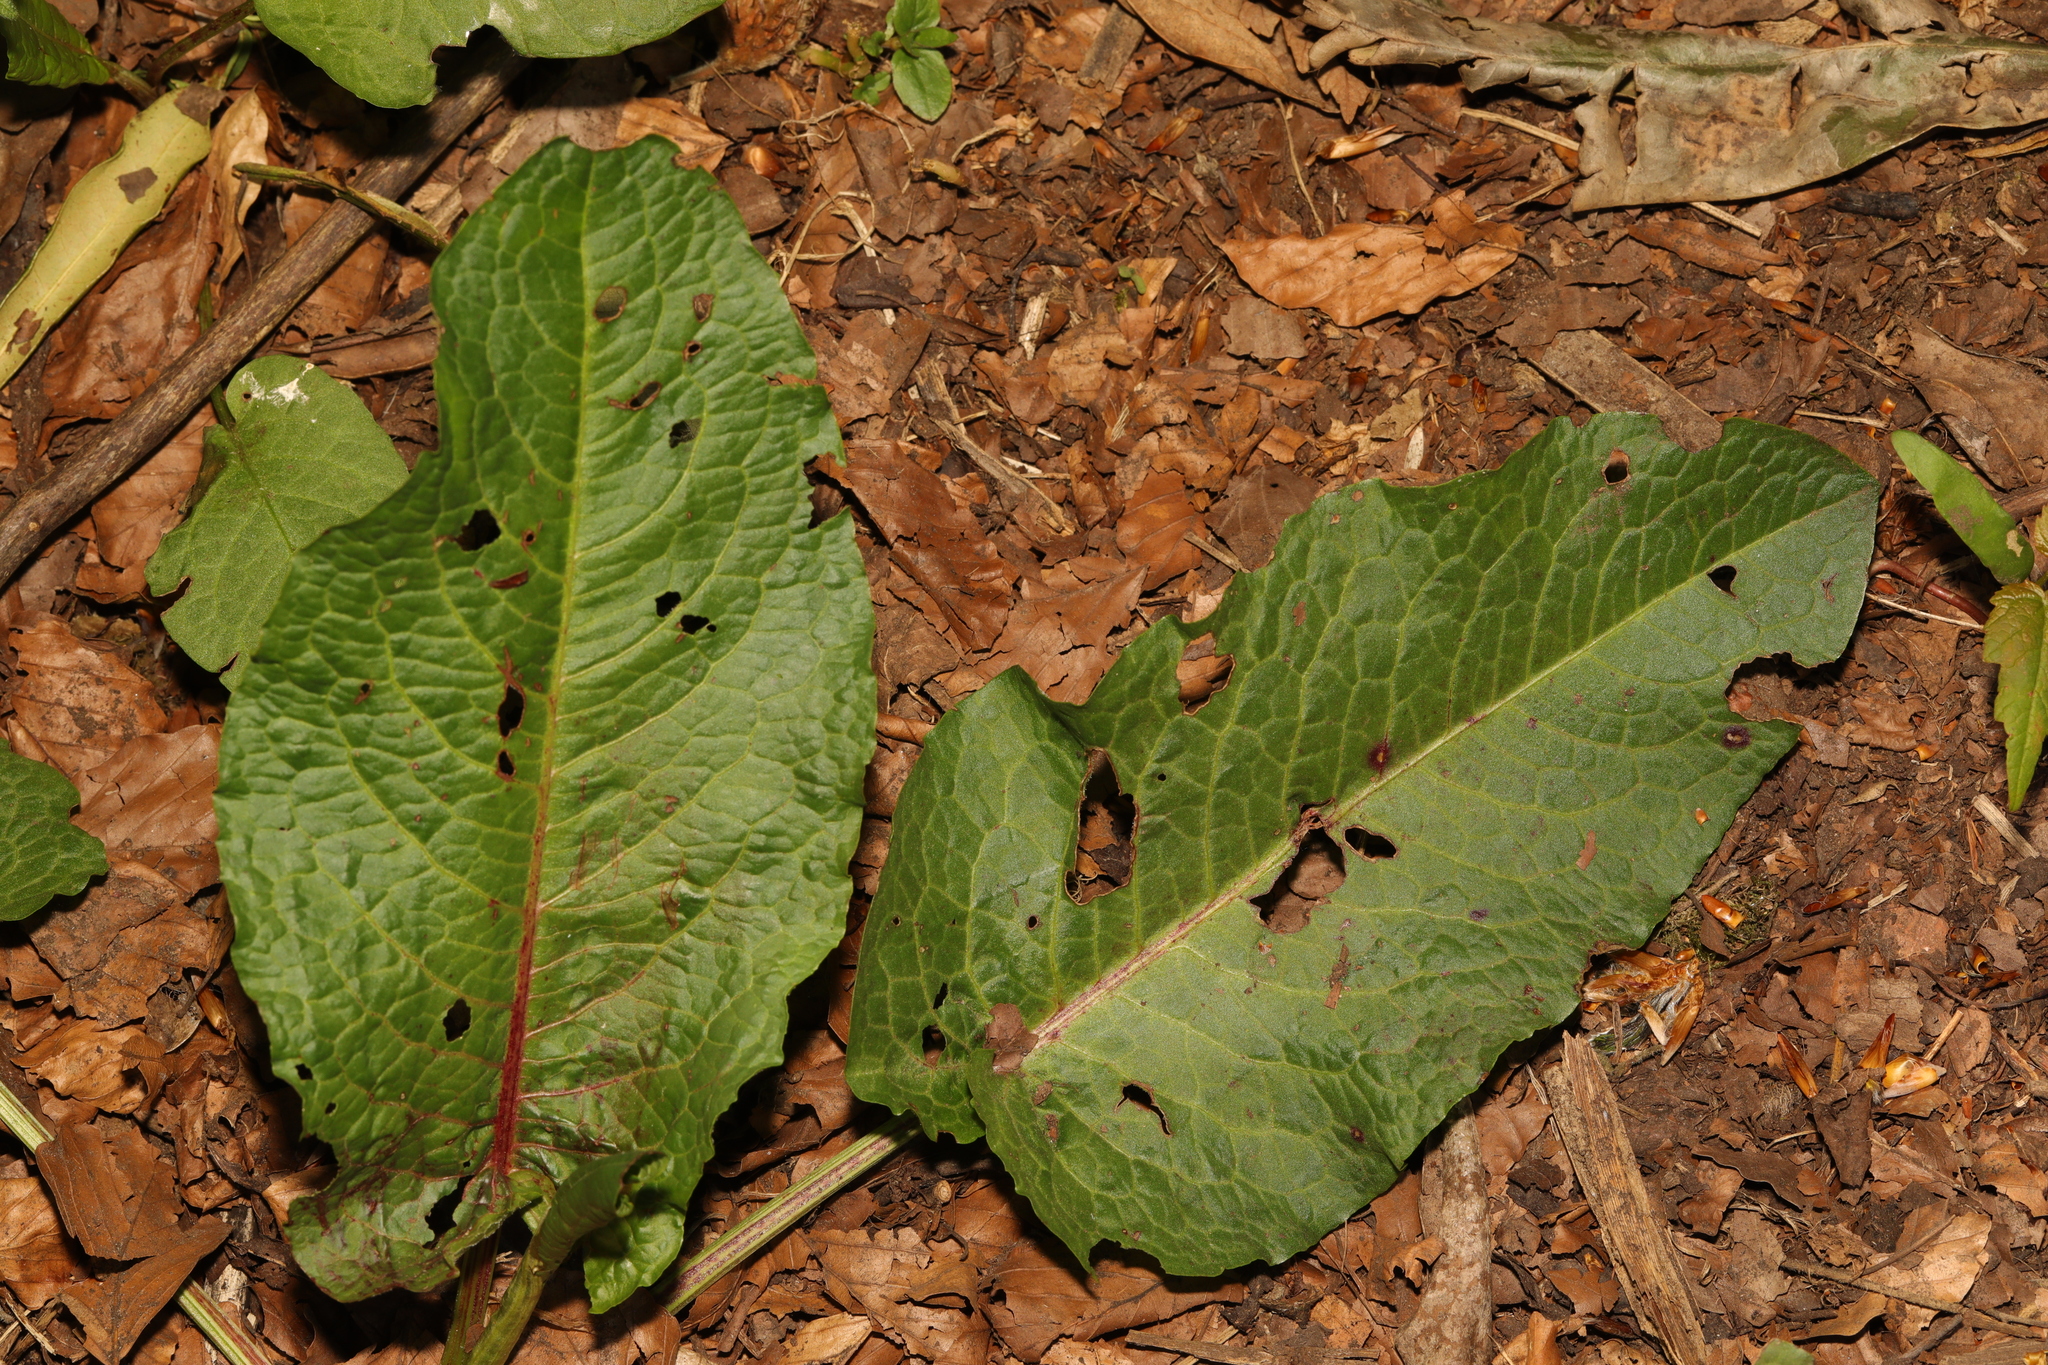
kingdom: Plantae
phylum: Tracheophyta
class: Magnoliopsida
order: Caryophyllales
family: Polygonaceae
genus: Rumex
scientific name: Rumex obtusifolius
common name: Bitter dock
